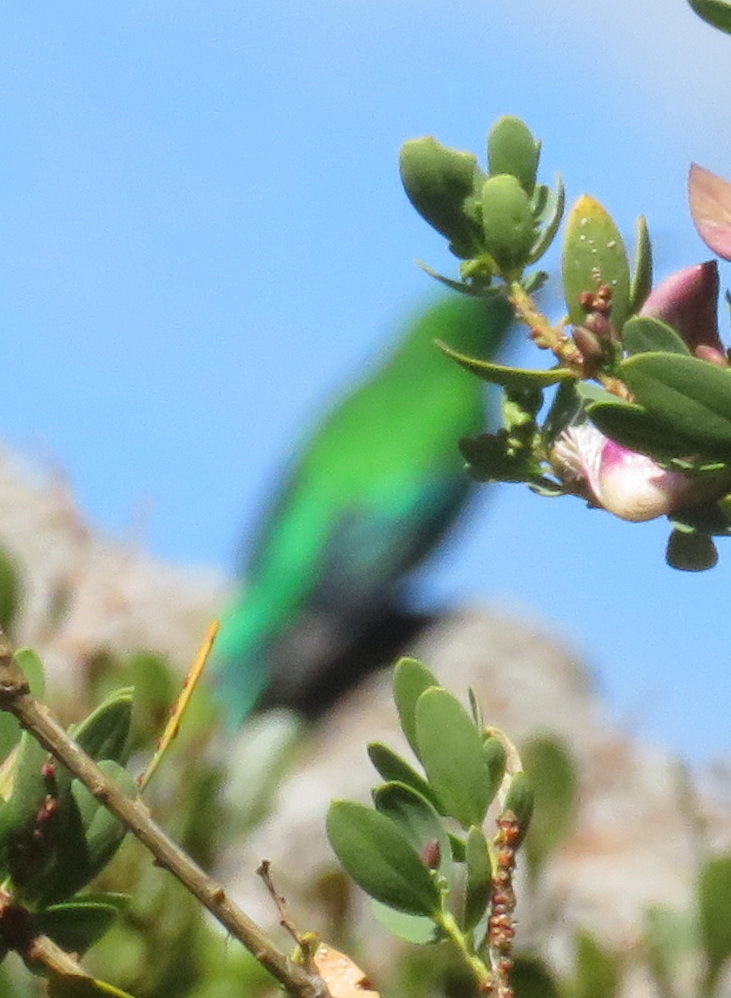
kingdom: Animalia
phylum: Chordata
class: Aves
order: Passeriformes
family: Nectariniidae
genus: Nectarinia
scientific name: Nectarinia famosa
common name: Malachite sunbird
